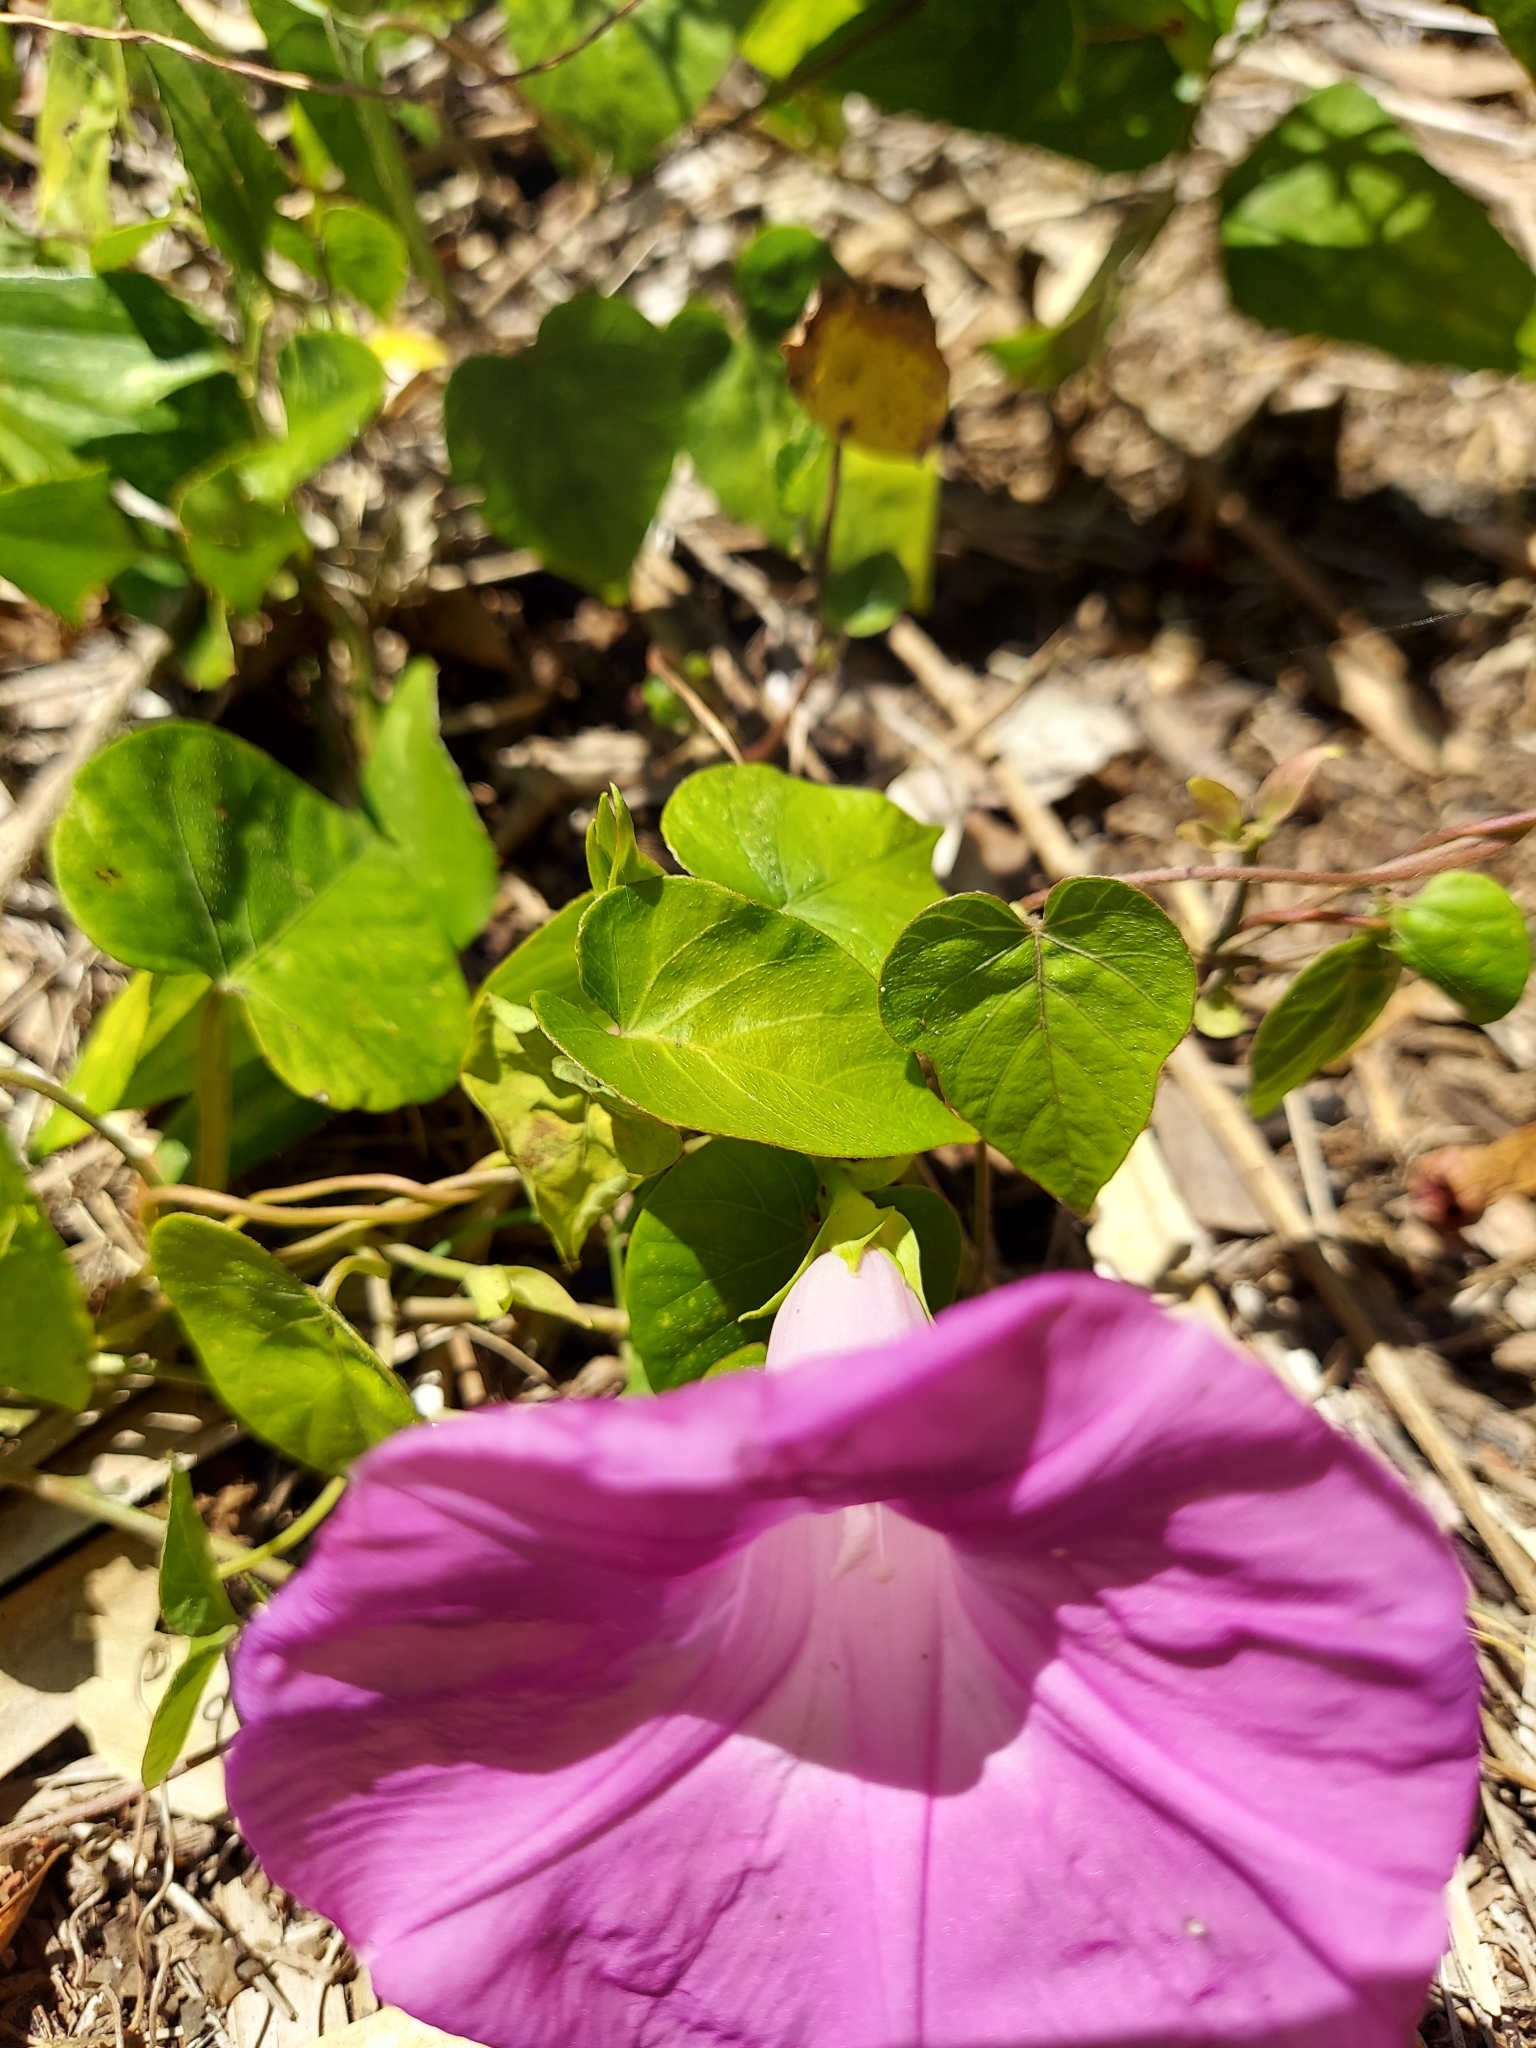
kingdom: Plantae
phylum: Tracheophyta
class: Magnoliopsida
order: Solanales
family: Convolvulaceae
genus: Ipomoea
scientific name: Ipomoea indica
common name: Blue dawnflower
